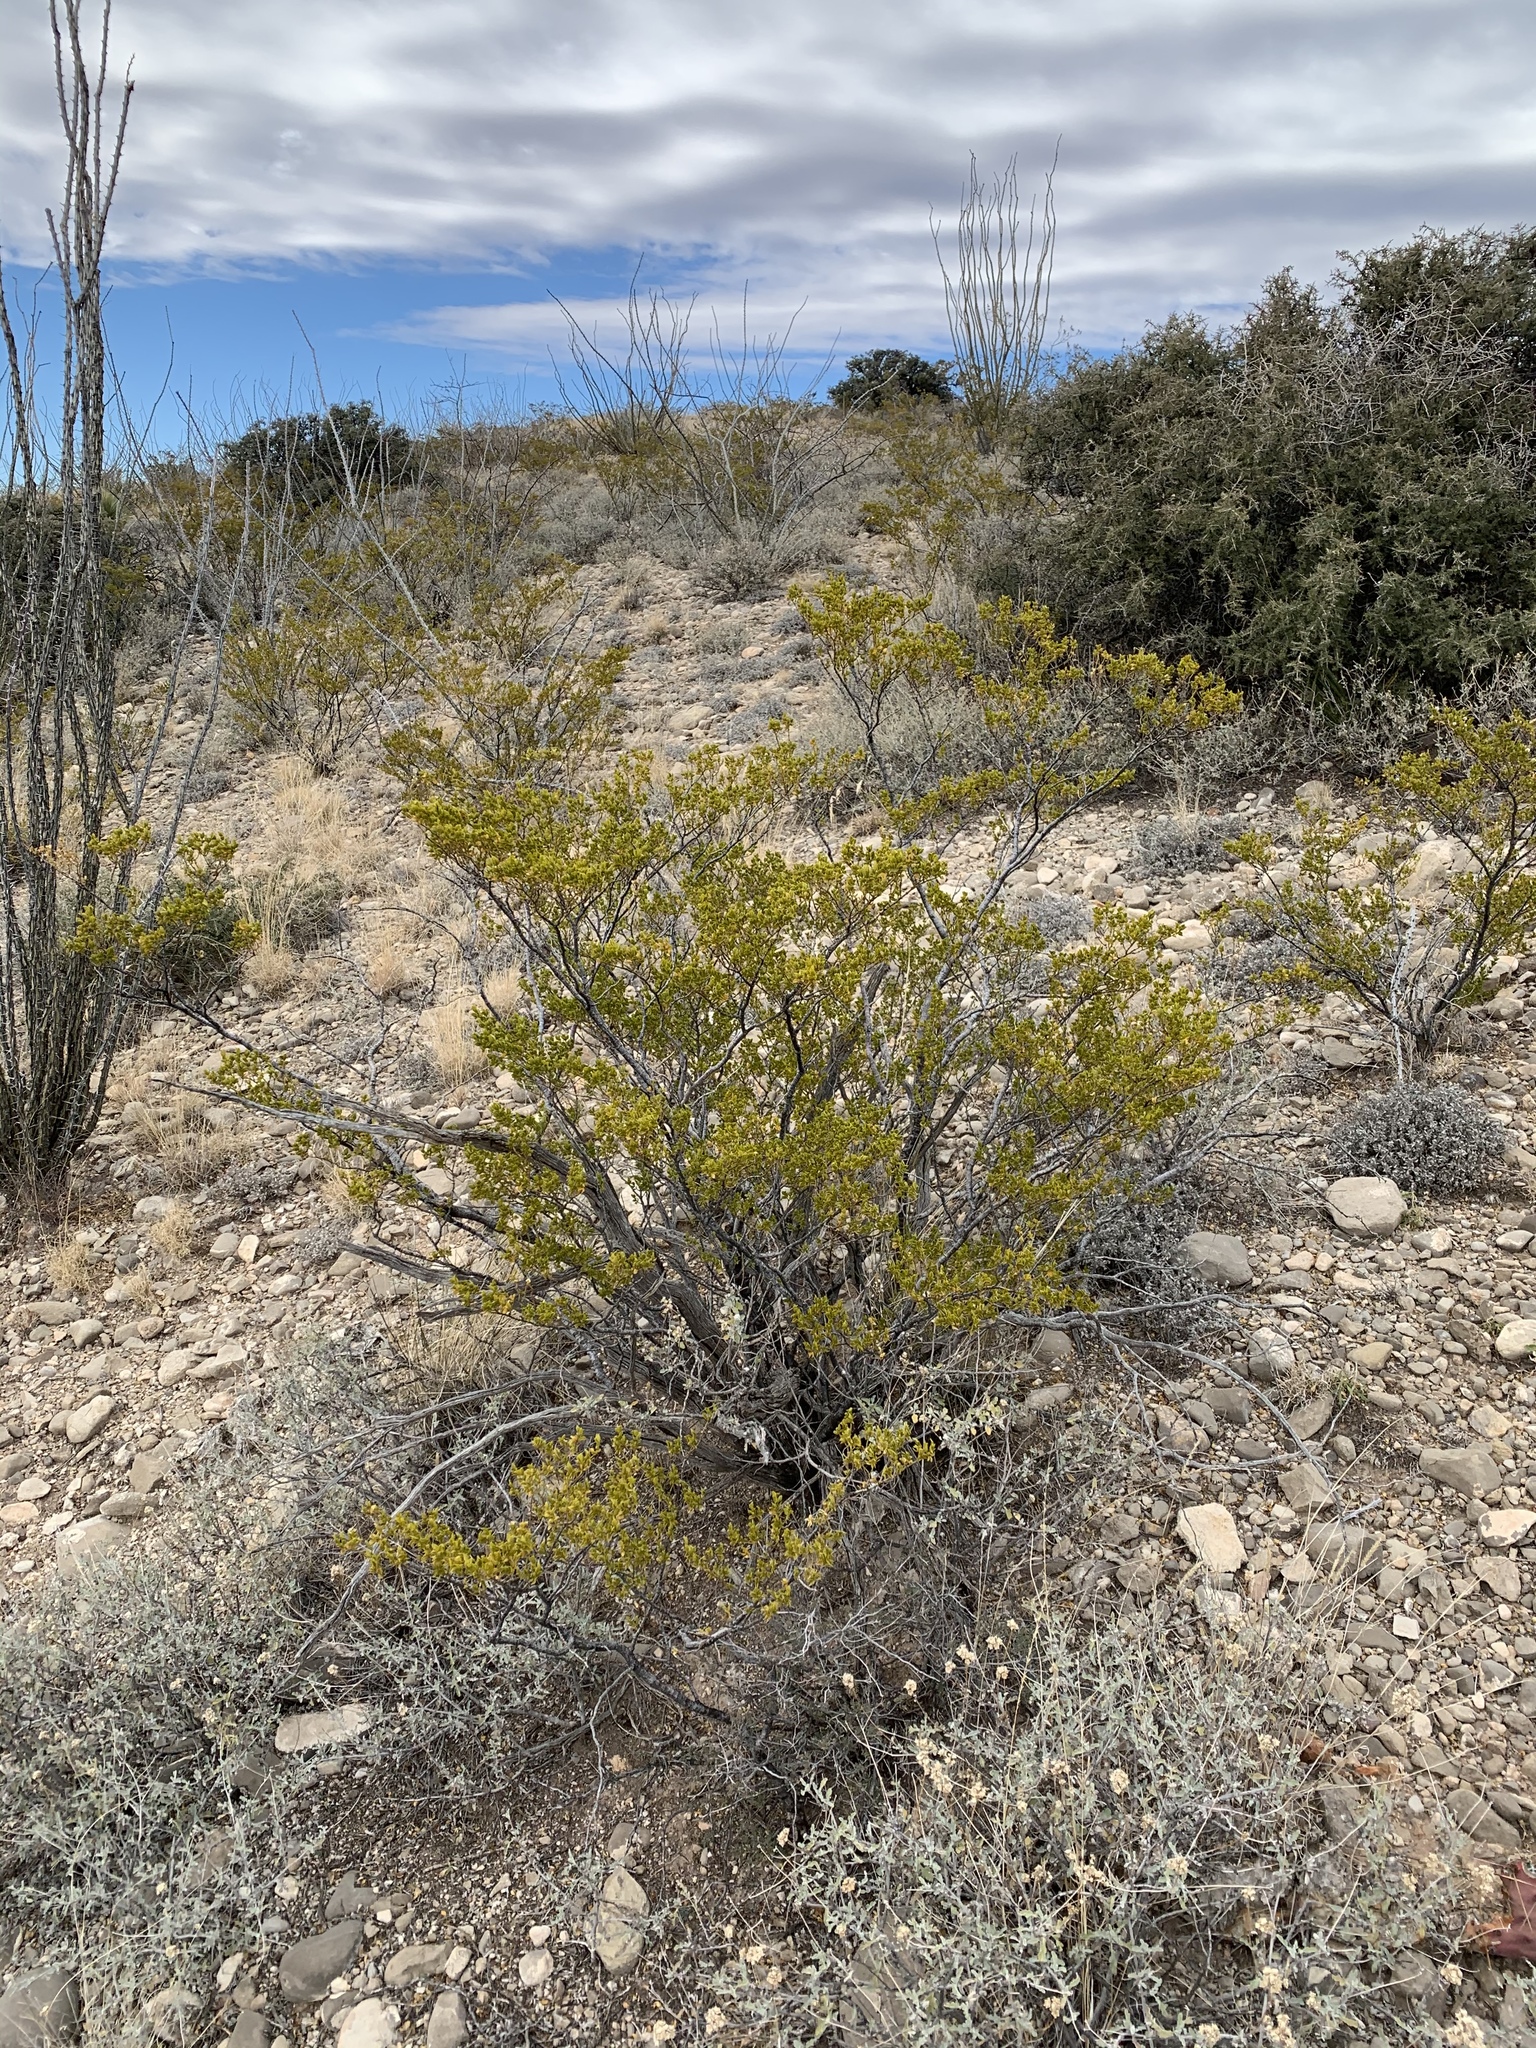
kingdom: Plantae
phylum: Tracheophyta
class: Magnoliopsida
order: Zygophyllales
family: Zygophyllaceae
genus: Larrea
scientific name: Larrea tridentata
